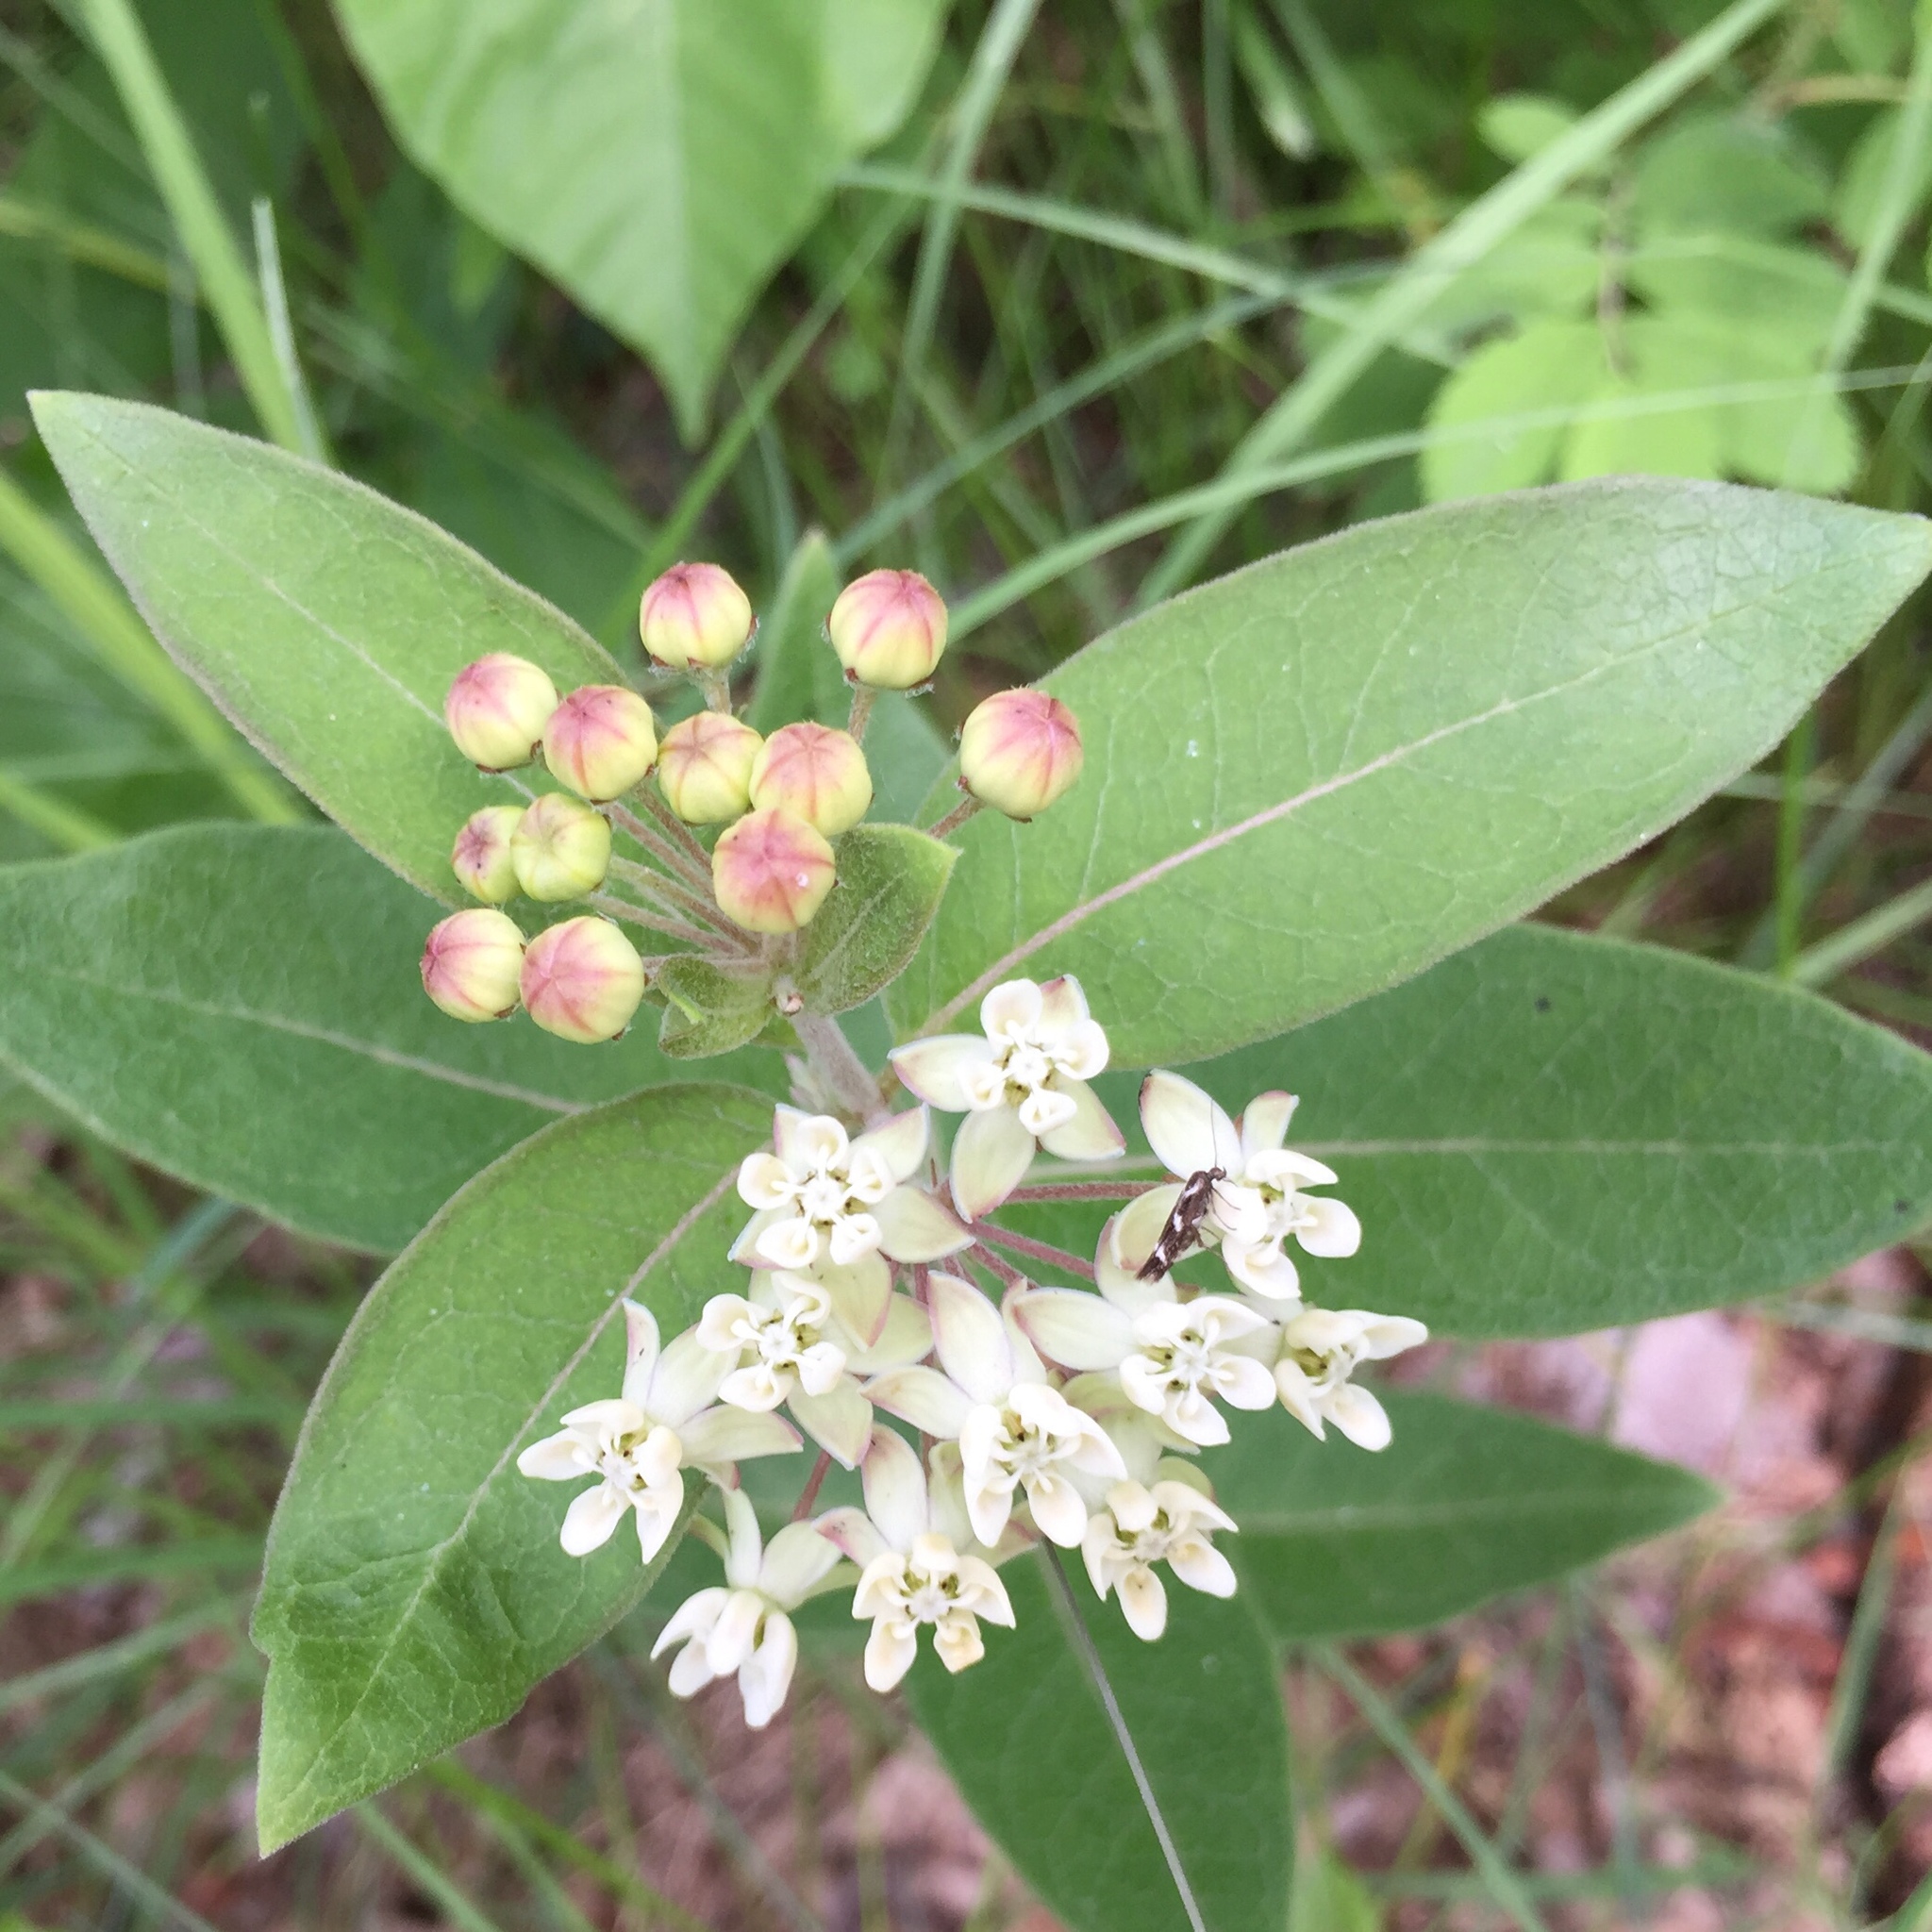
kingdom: Plantae
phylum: Tracheophyta
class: Magnoliopsida
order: Gentianales
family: Apocynaceae
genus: Asclepias
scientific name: Asclepias ovalifolia
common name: Dwarf milkweed
